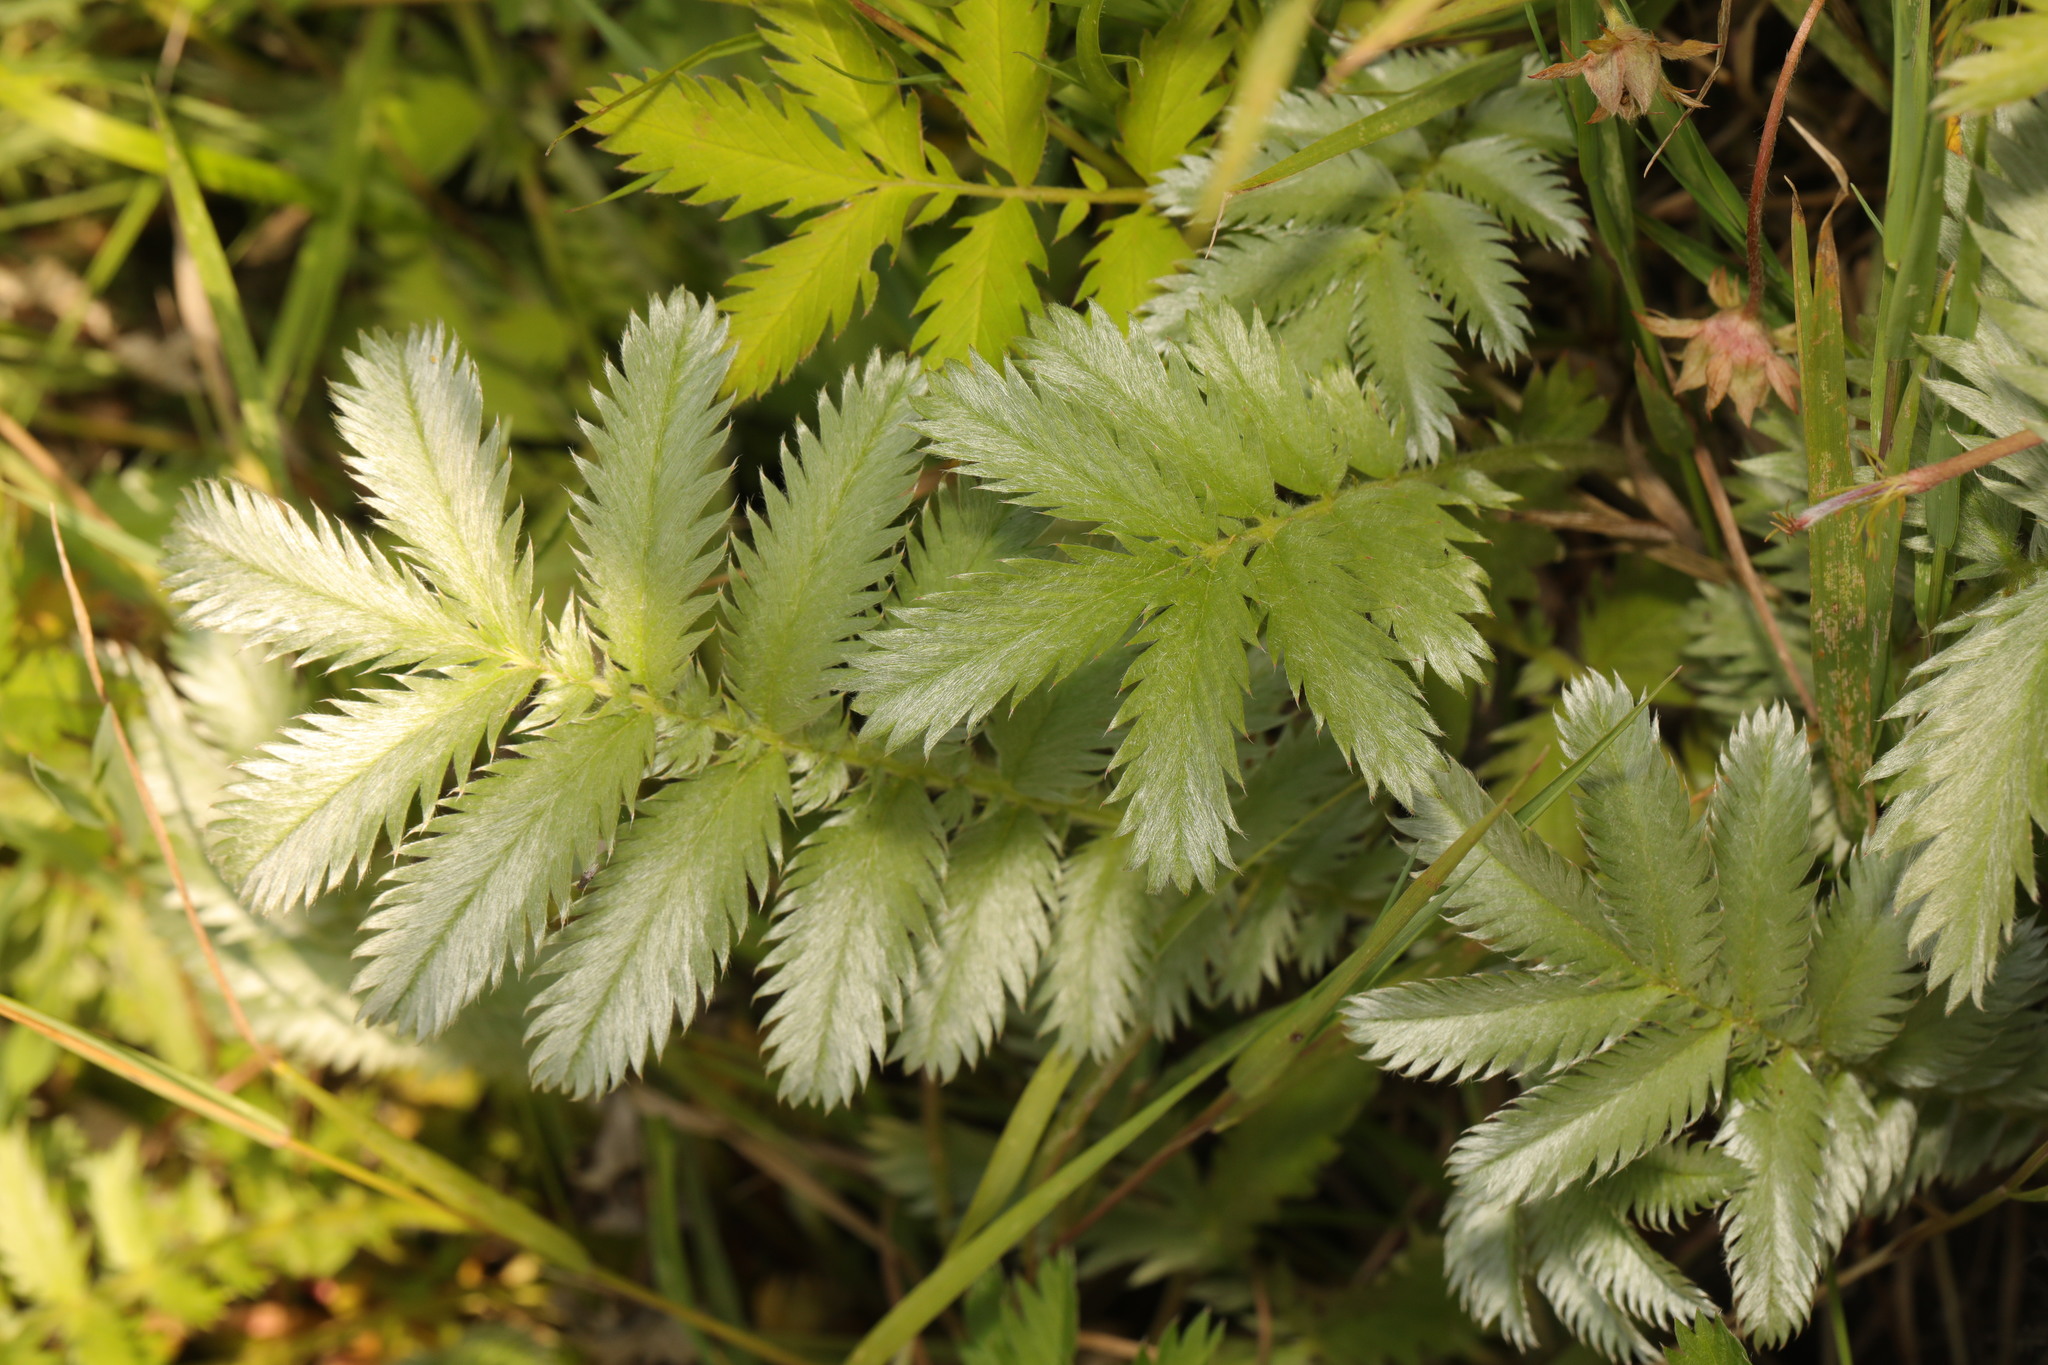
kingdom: Plantae
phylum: Tracheophyta
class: Magnoliopsida
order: Rosales
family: Rosaceae
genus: Argentina
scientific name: Argentina anserina
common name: Common silverweed
